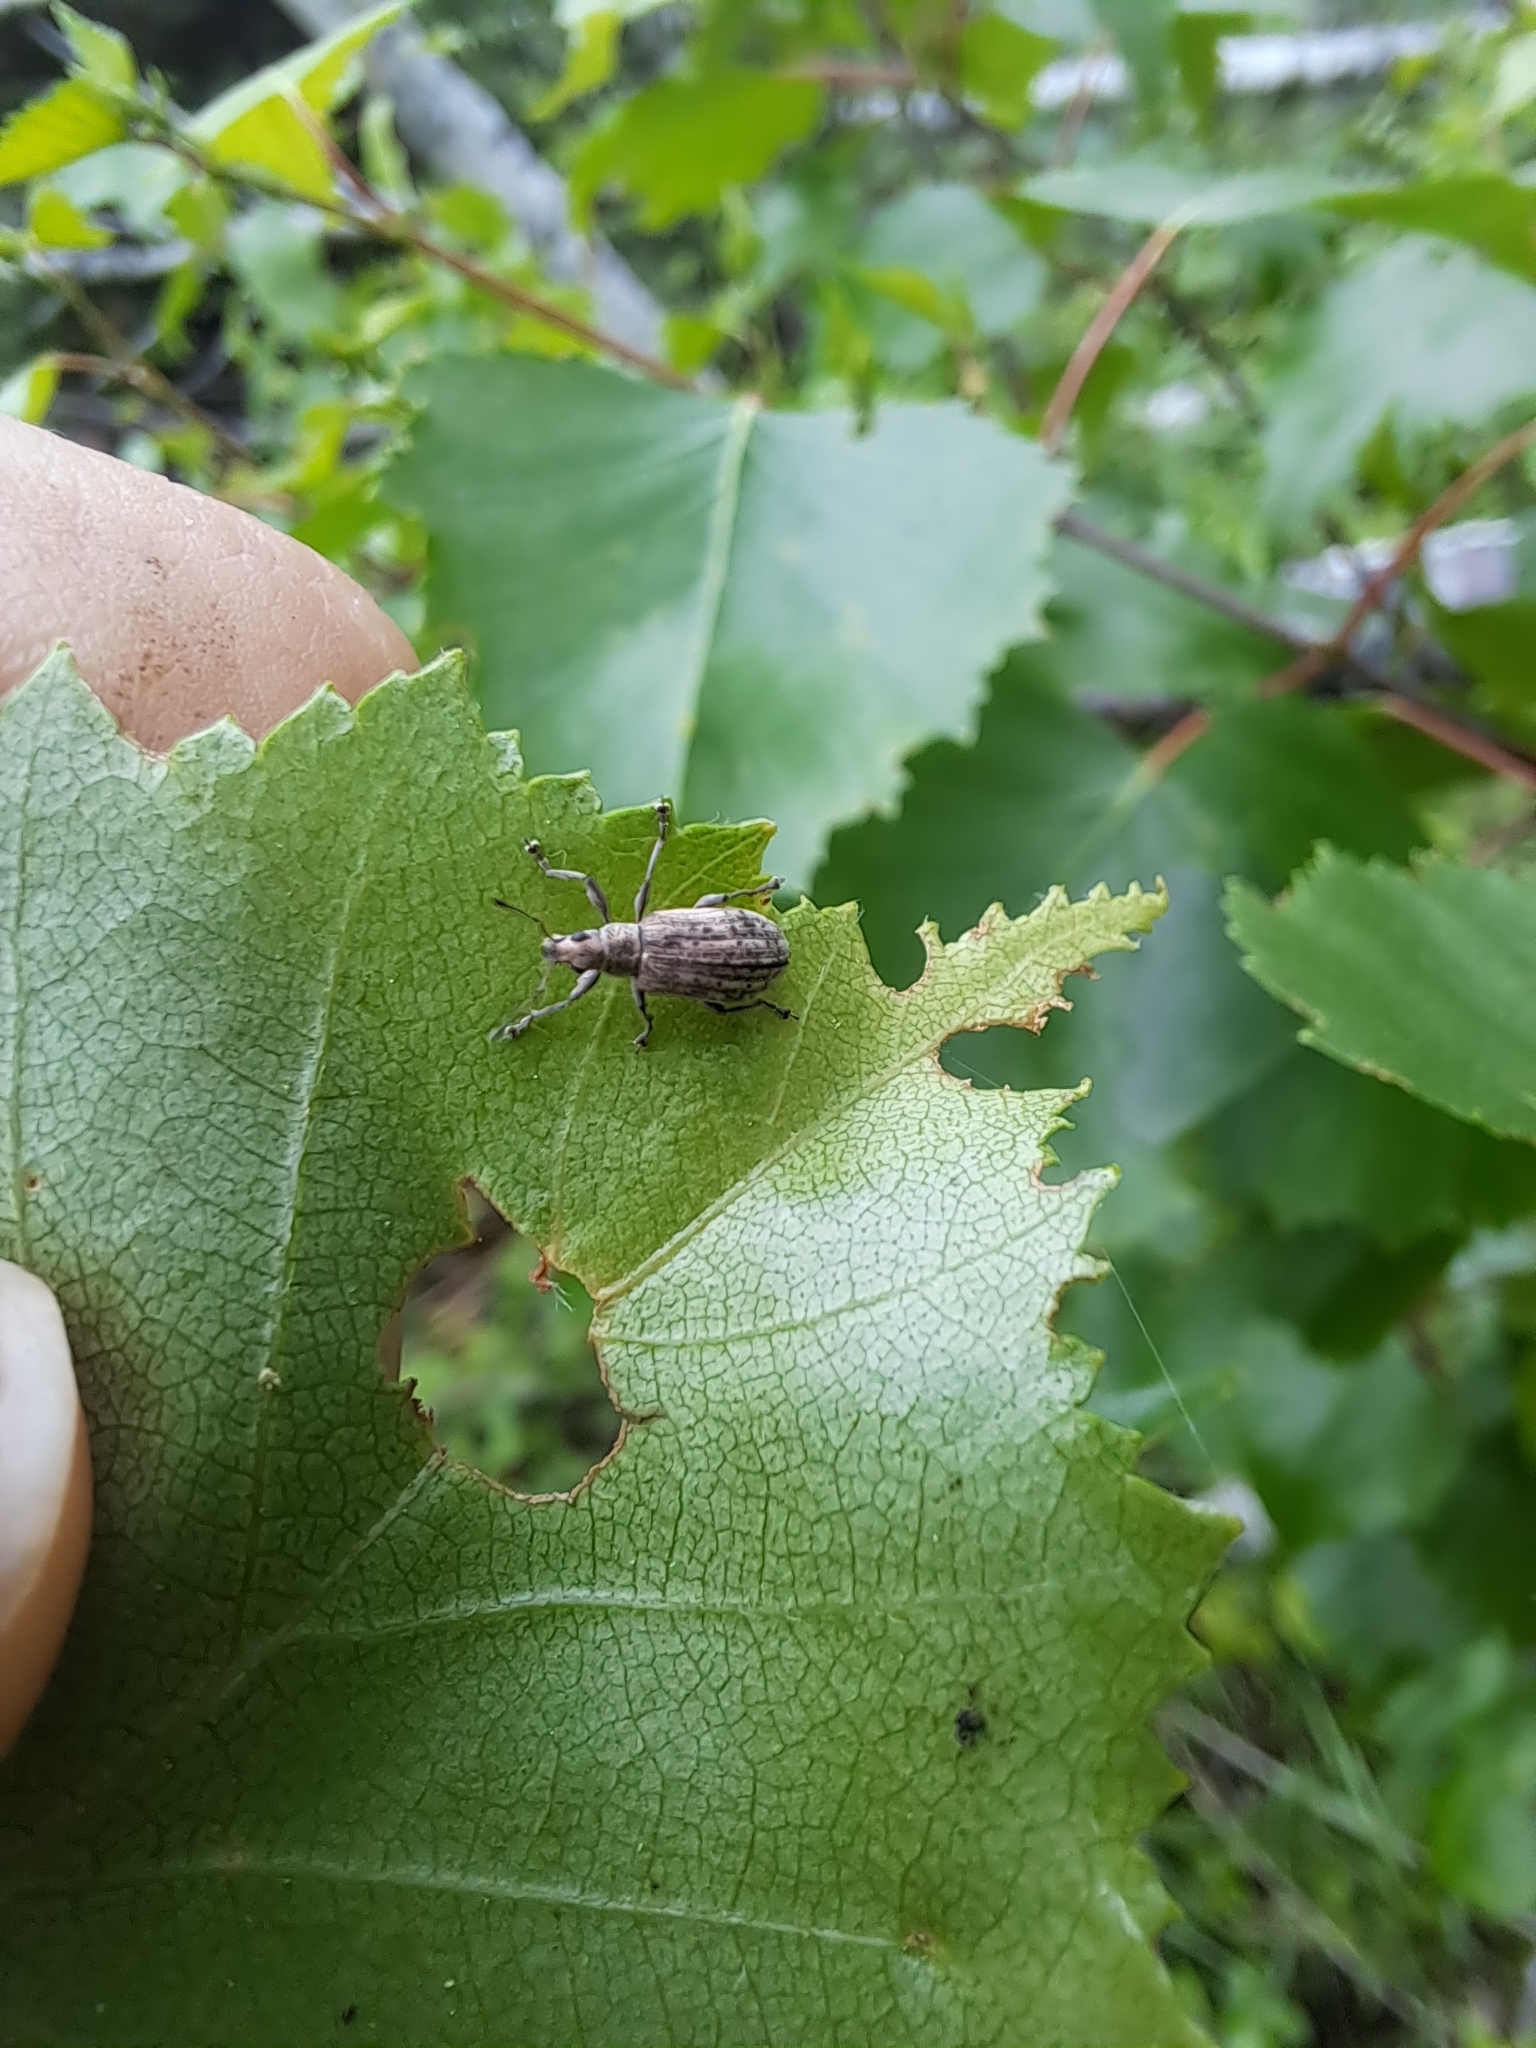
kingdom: Animalia
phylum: Arthropoda
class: Insecta
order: Coleoptera
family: Curculionidae
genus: Polydrusus
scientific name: Polydrusus cervinus
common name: Weevil
